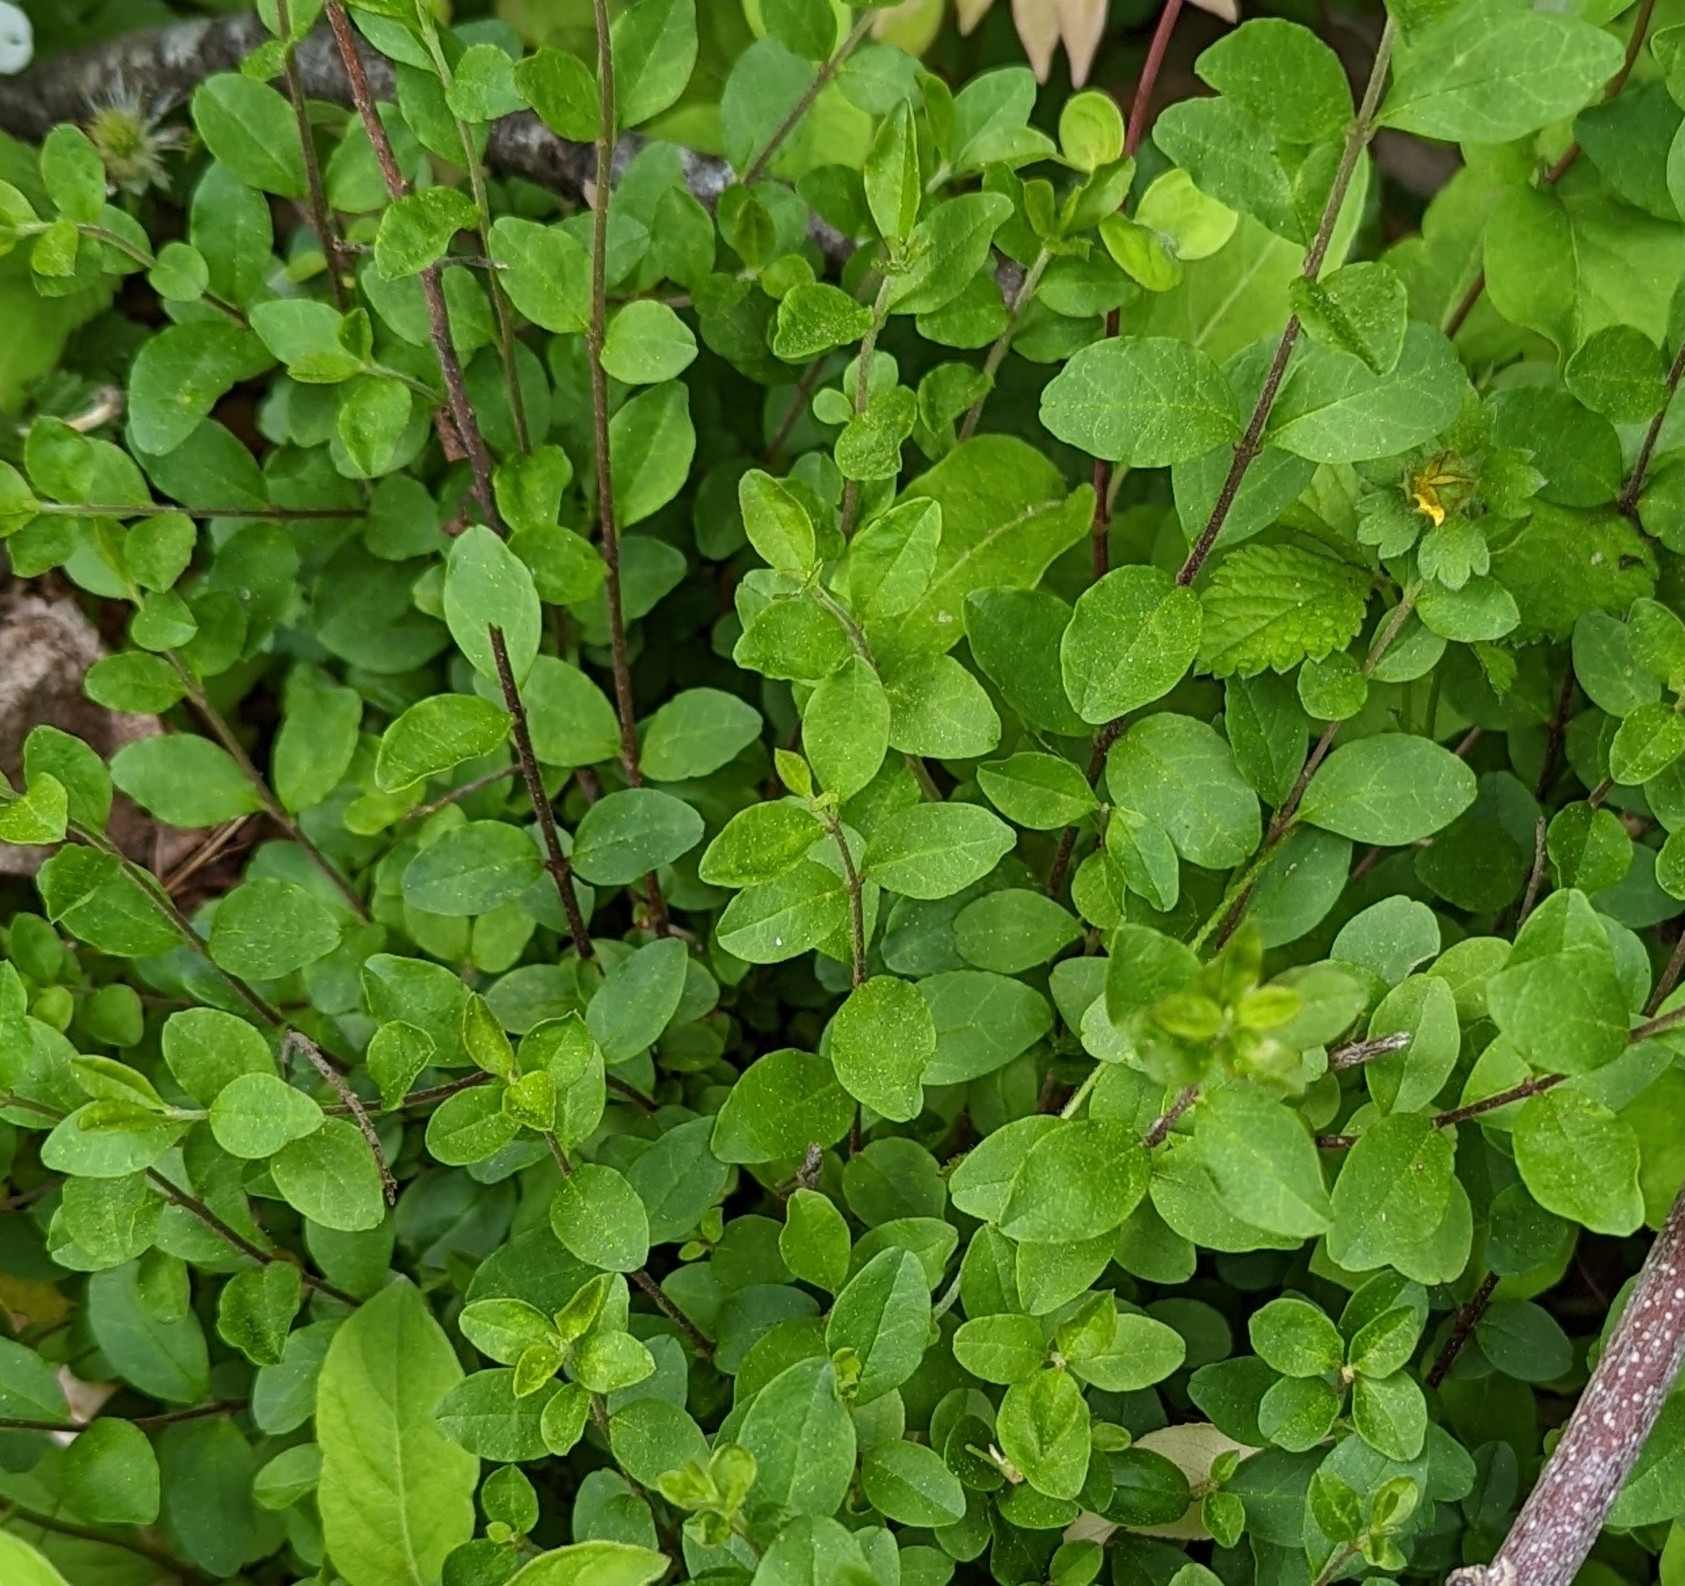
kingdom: Plantae
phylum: Tracheophyta
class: Magnoliopsida
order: Lamiales
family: Oleaceae
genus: Ligustrum
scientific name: Ligustrum sinense
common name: Chinese privet
